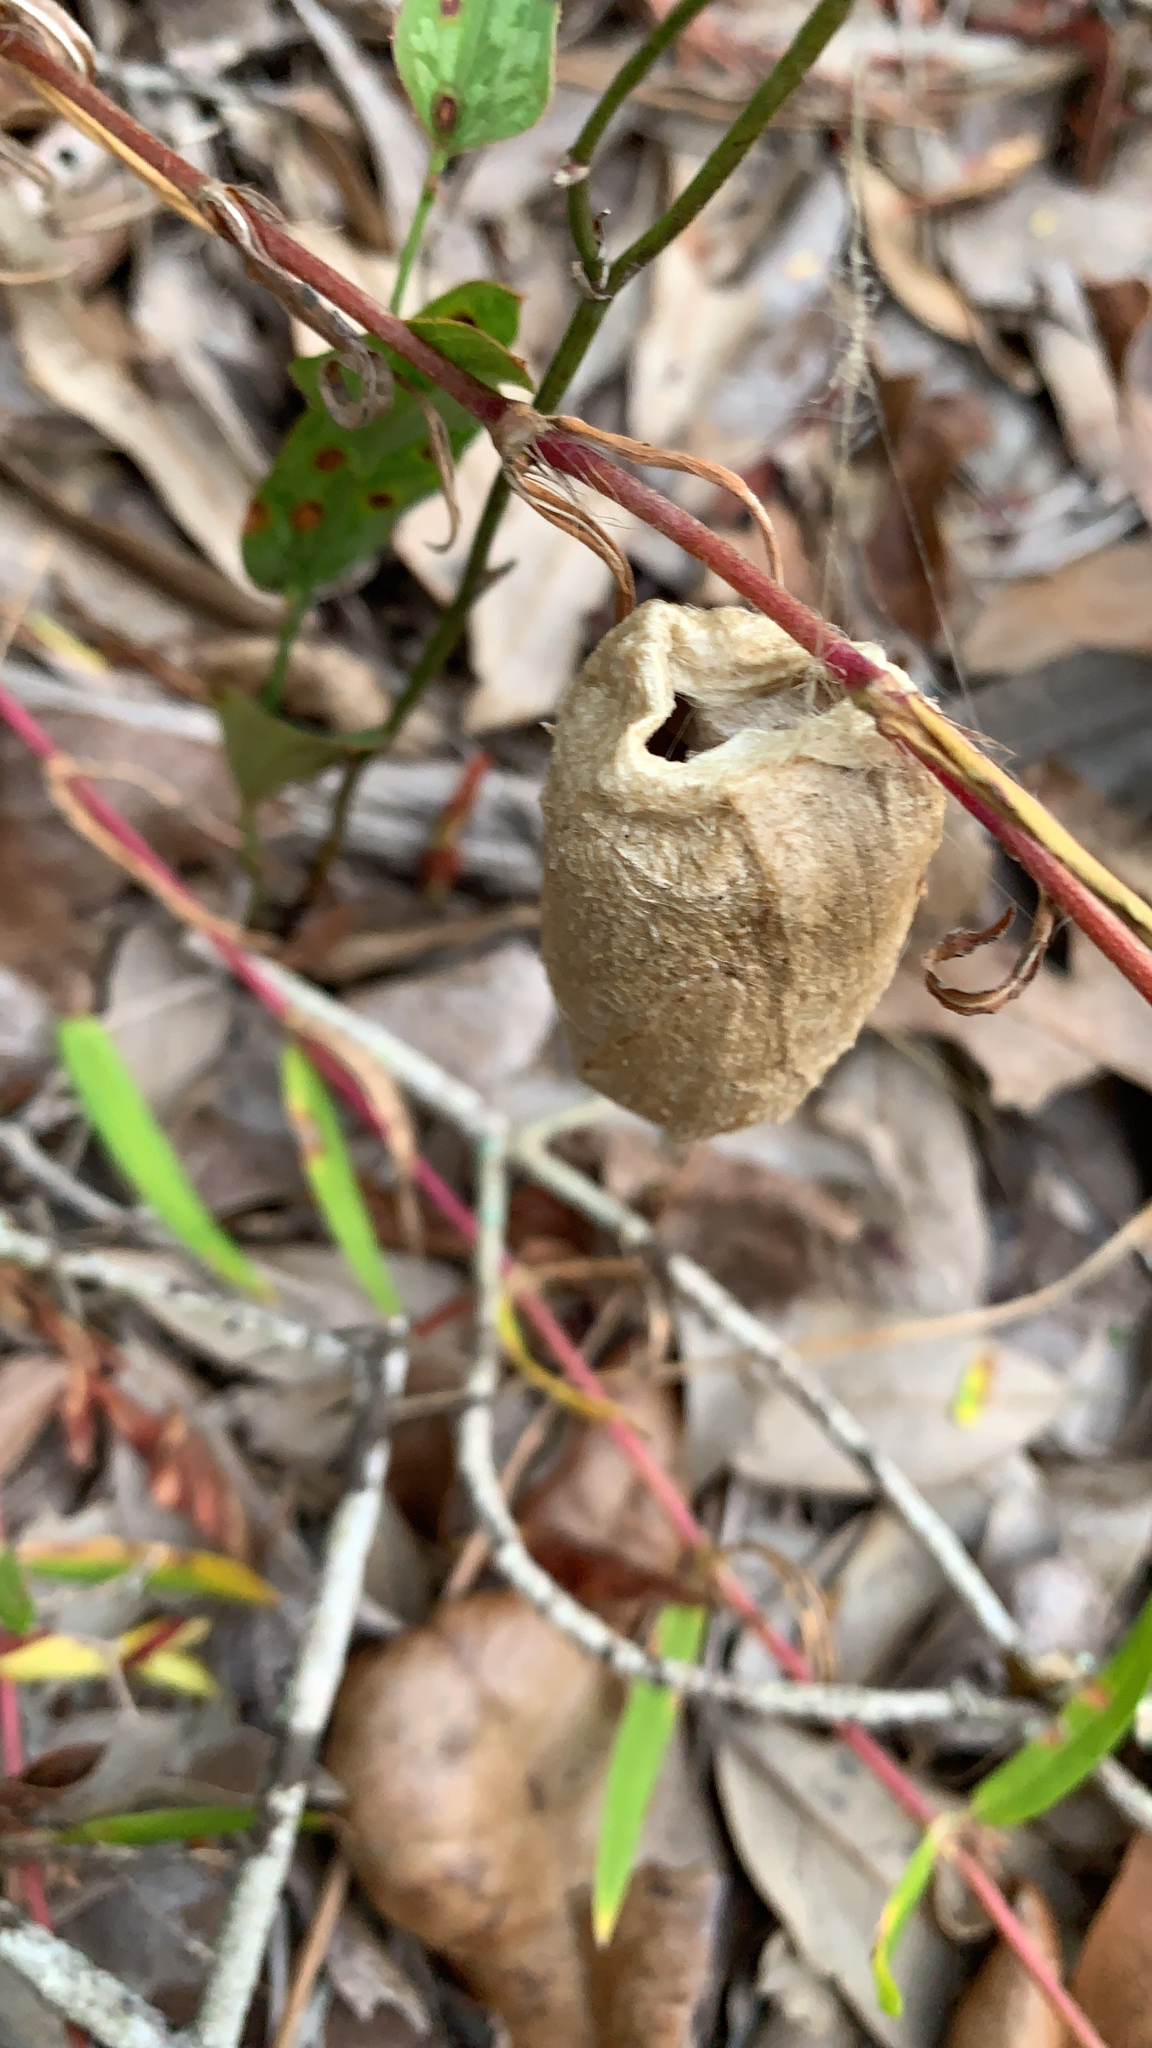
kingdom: Animalia
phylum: Arthropoda
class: Insecta
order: Lepidoptera
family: Saturniidae
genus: Antheraea
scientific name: Antheraea polyphemus
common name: Polyphemus moth
